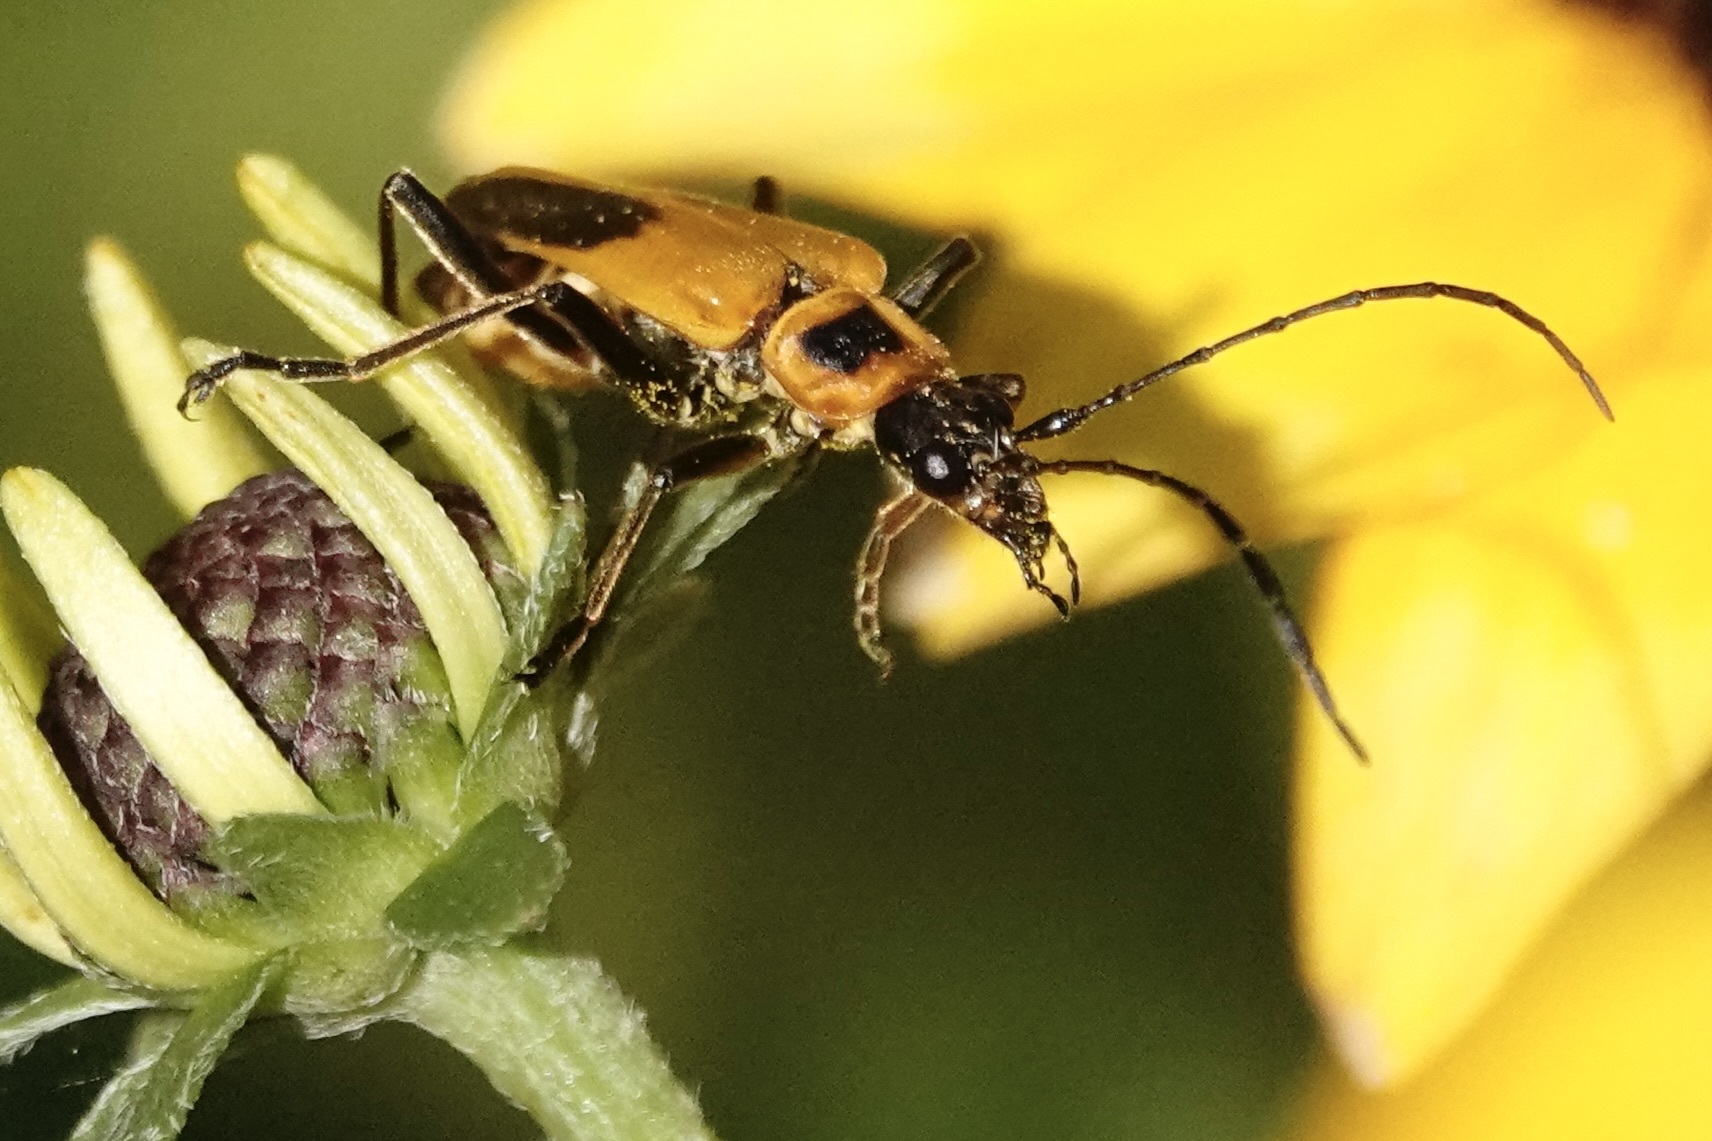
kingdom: Animalia
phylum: Arthropoda
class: Insecta
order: Coleoptera
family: Cantharidae
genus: Chauliognathus
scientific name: Chauliognathus pensylvanicus
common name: Goldenrod soldier beetle
